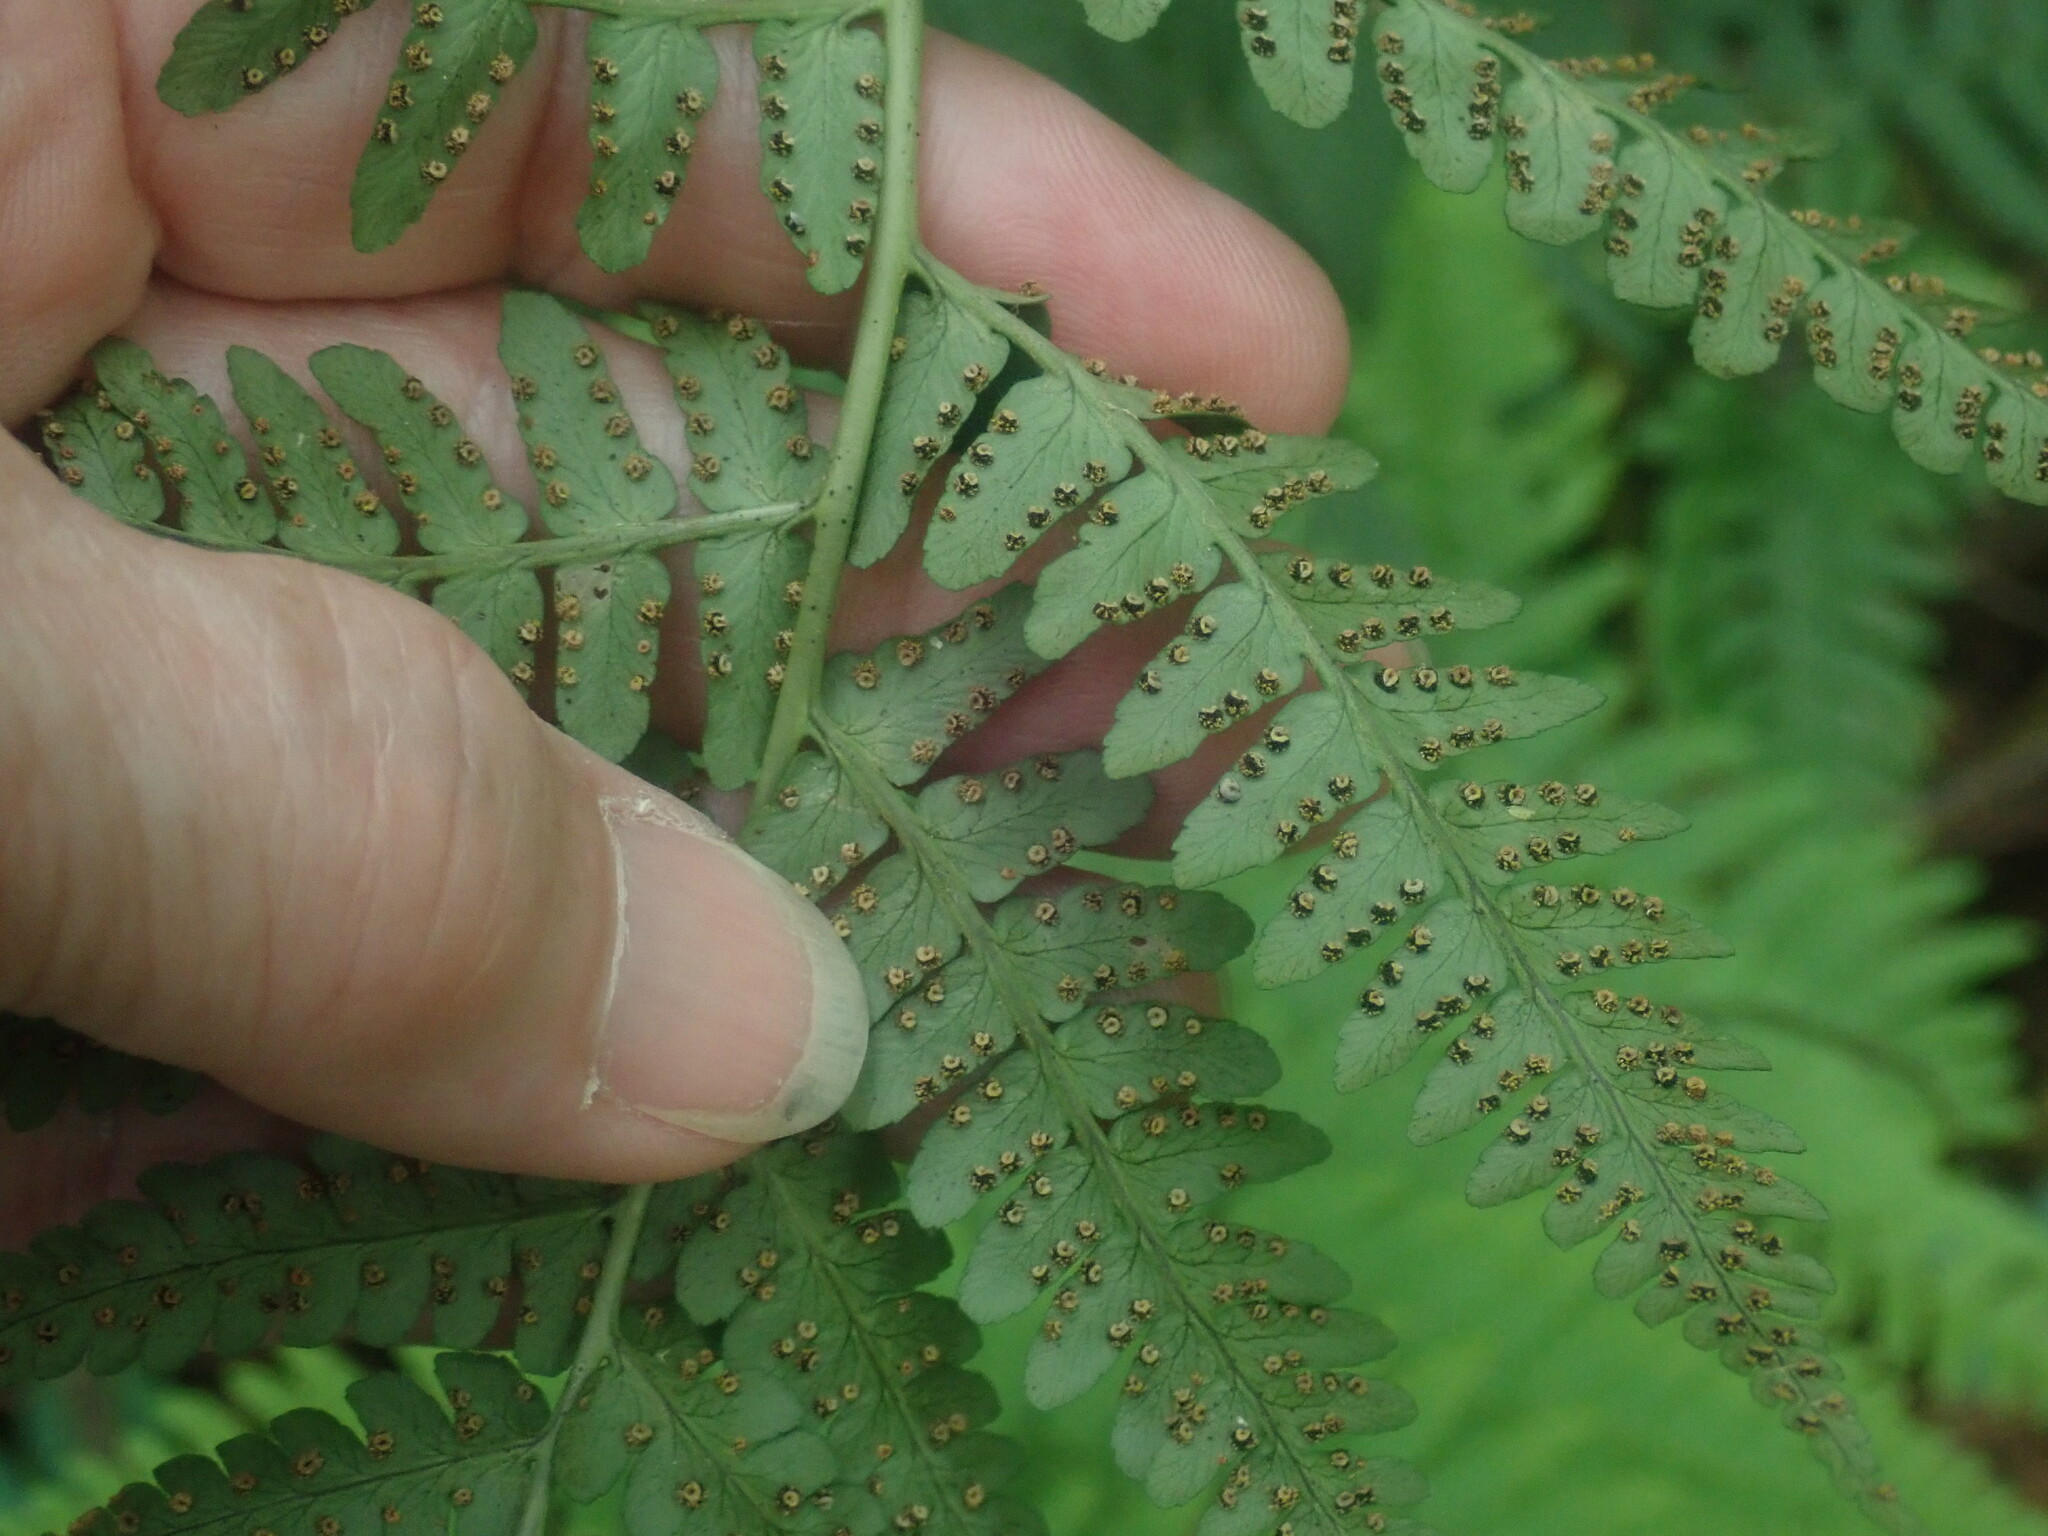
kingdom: Plantae
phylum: Tracheophyta
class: Polypodiopsida
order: Polypodiales
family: Dryopteridaceae
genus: Dryopteris
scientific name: Dryopteris marginalis
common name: Marginal wood fern
